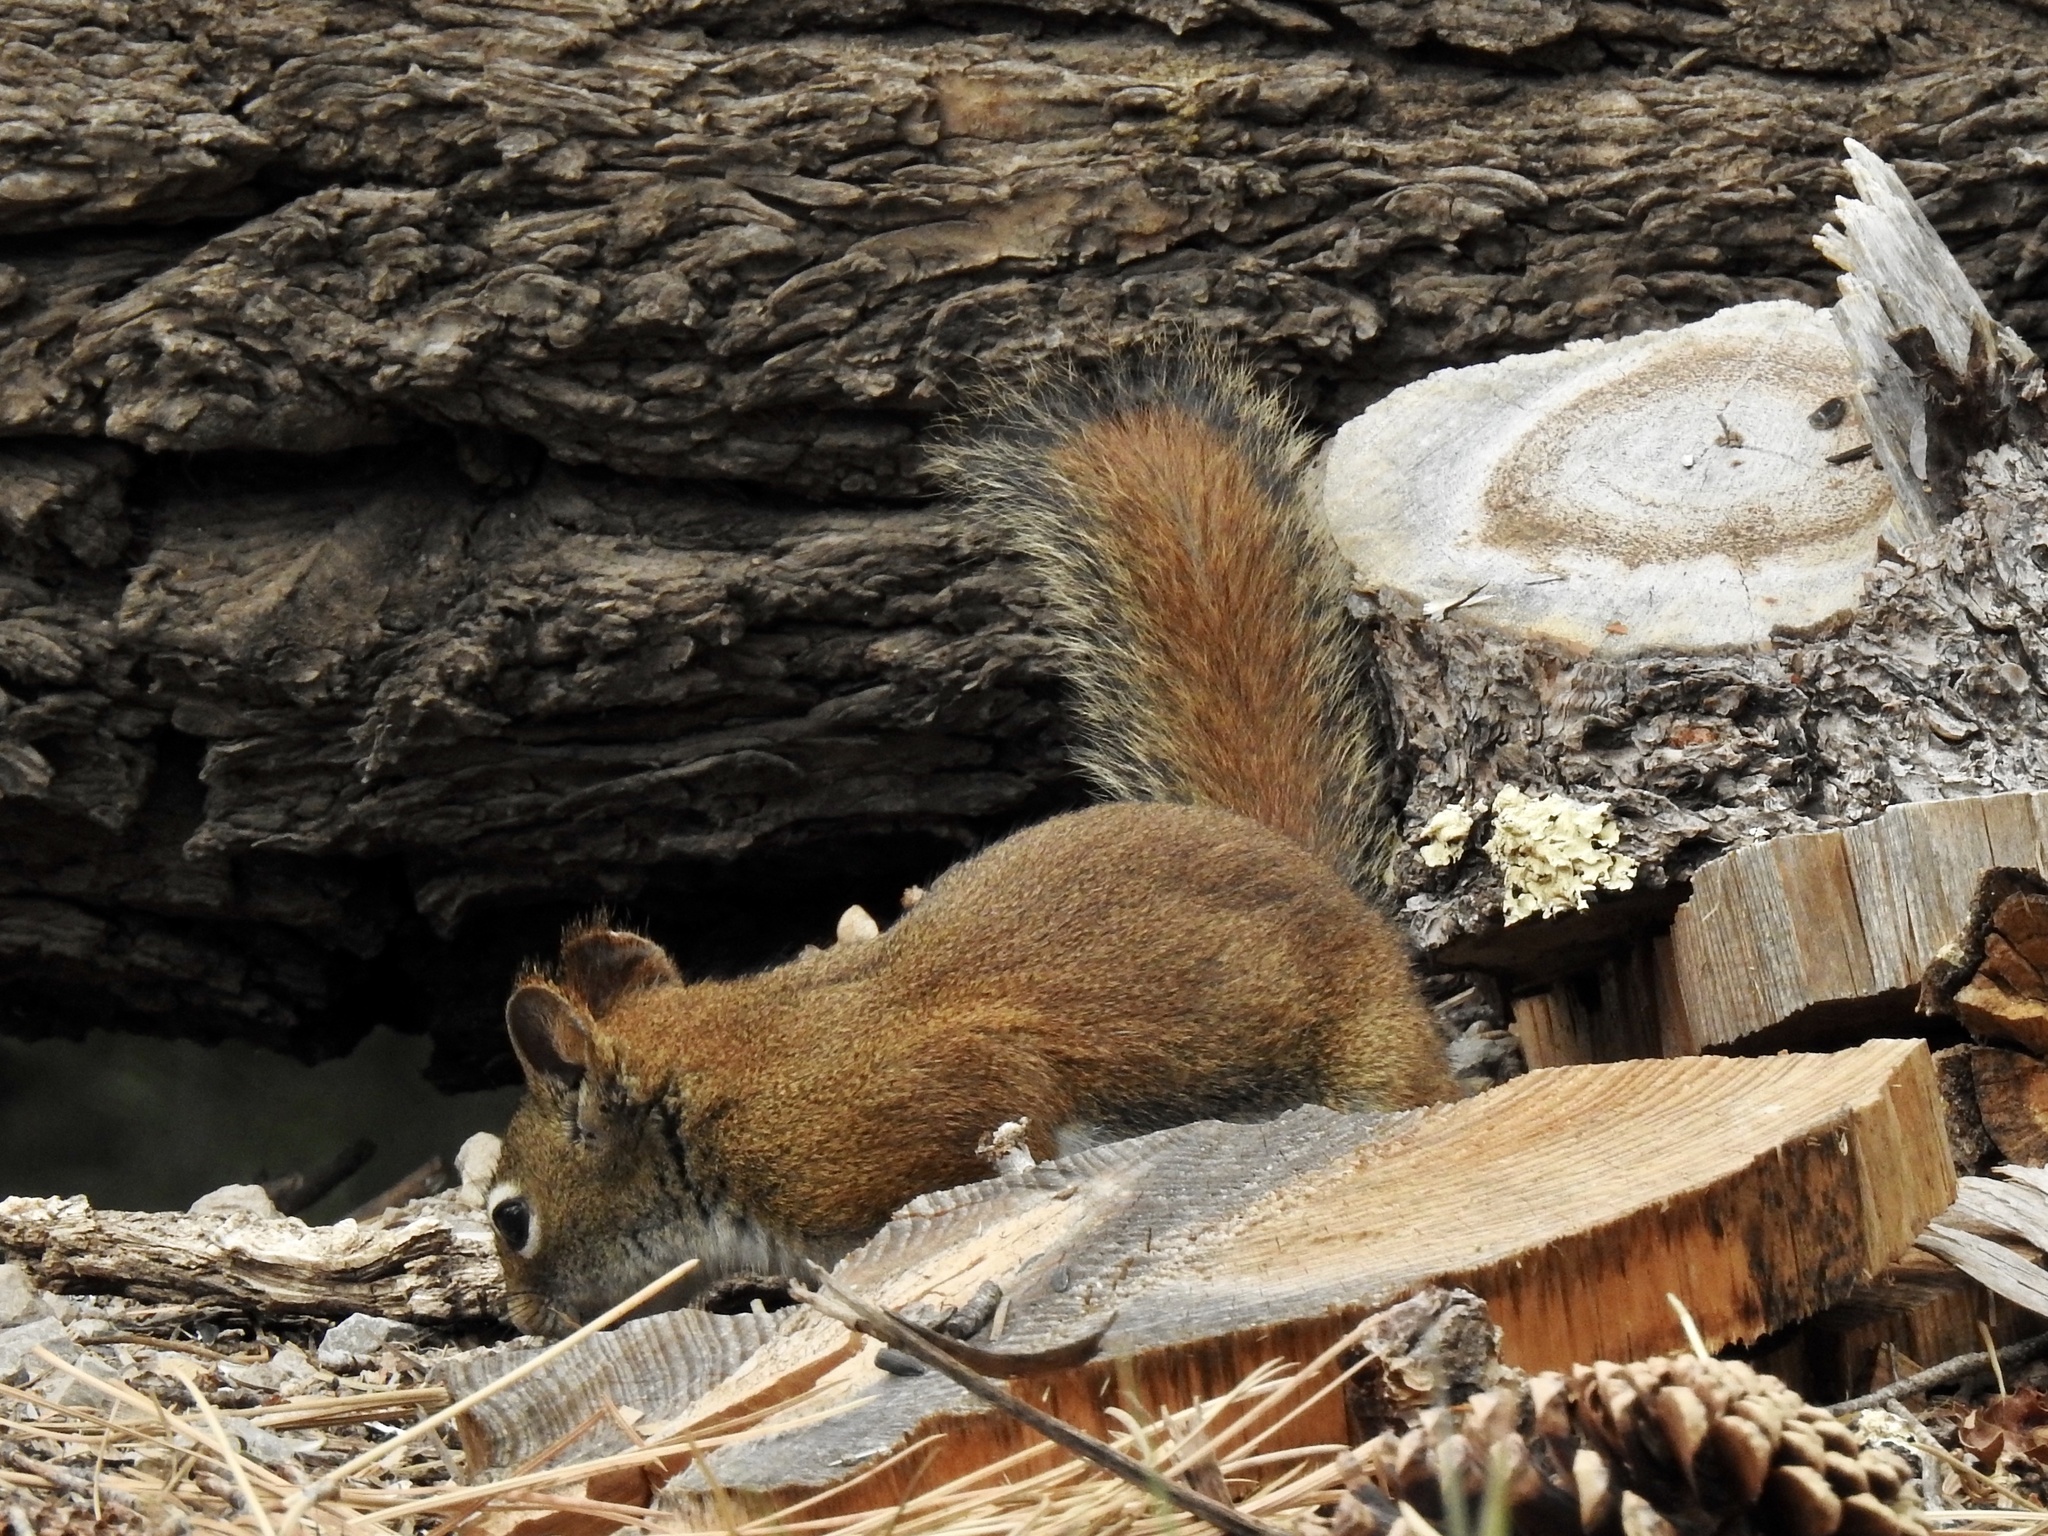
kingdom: Animalia
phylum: Chordata
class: Mammalia
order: Rodentia
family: Sciuridae
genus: Tamiasciurus
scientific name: Tamiasciurus hudsonicus
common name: Red squirrel
